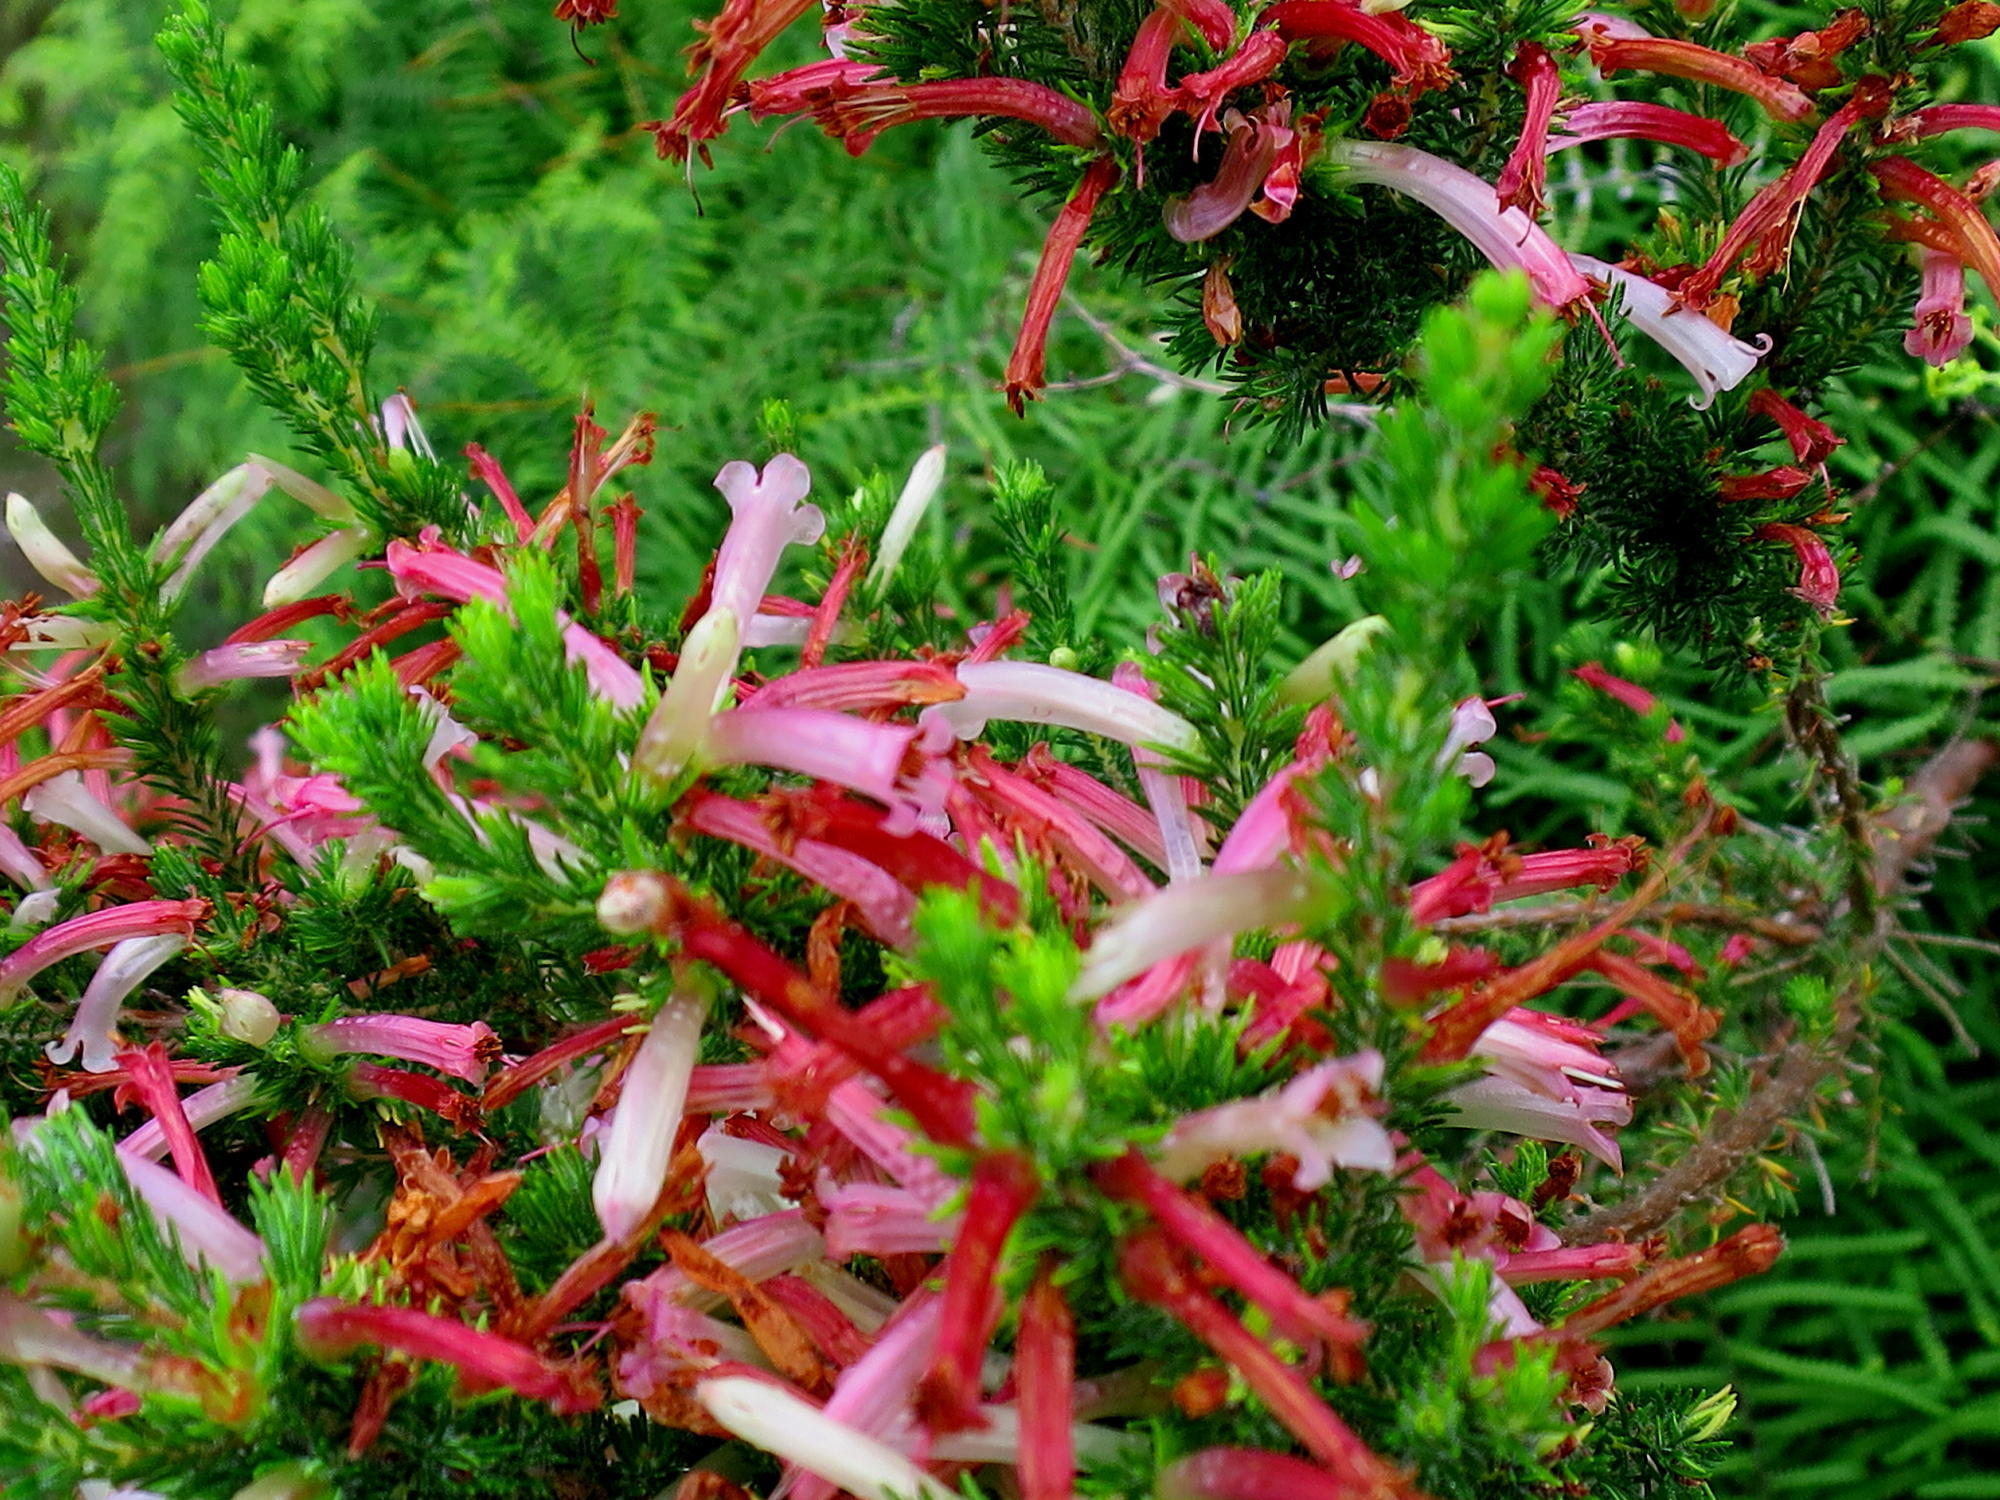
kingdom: Plantae
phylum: Tracheophyta
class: Magnoliopsida
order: Ericales
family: Ericaceae
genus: Erica
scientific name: Erica curviflora
